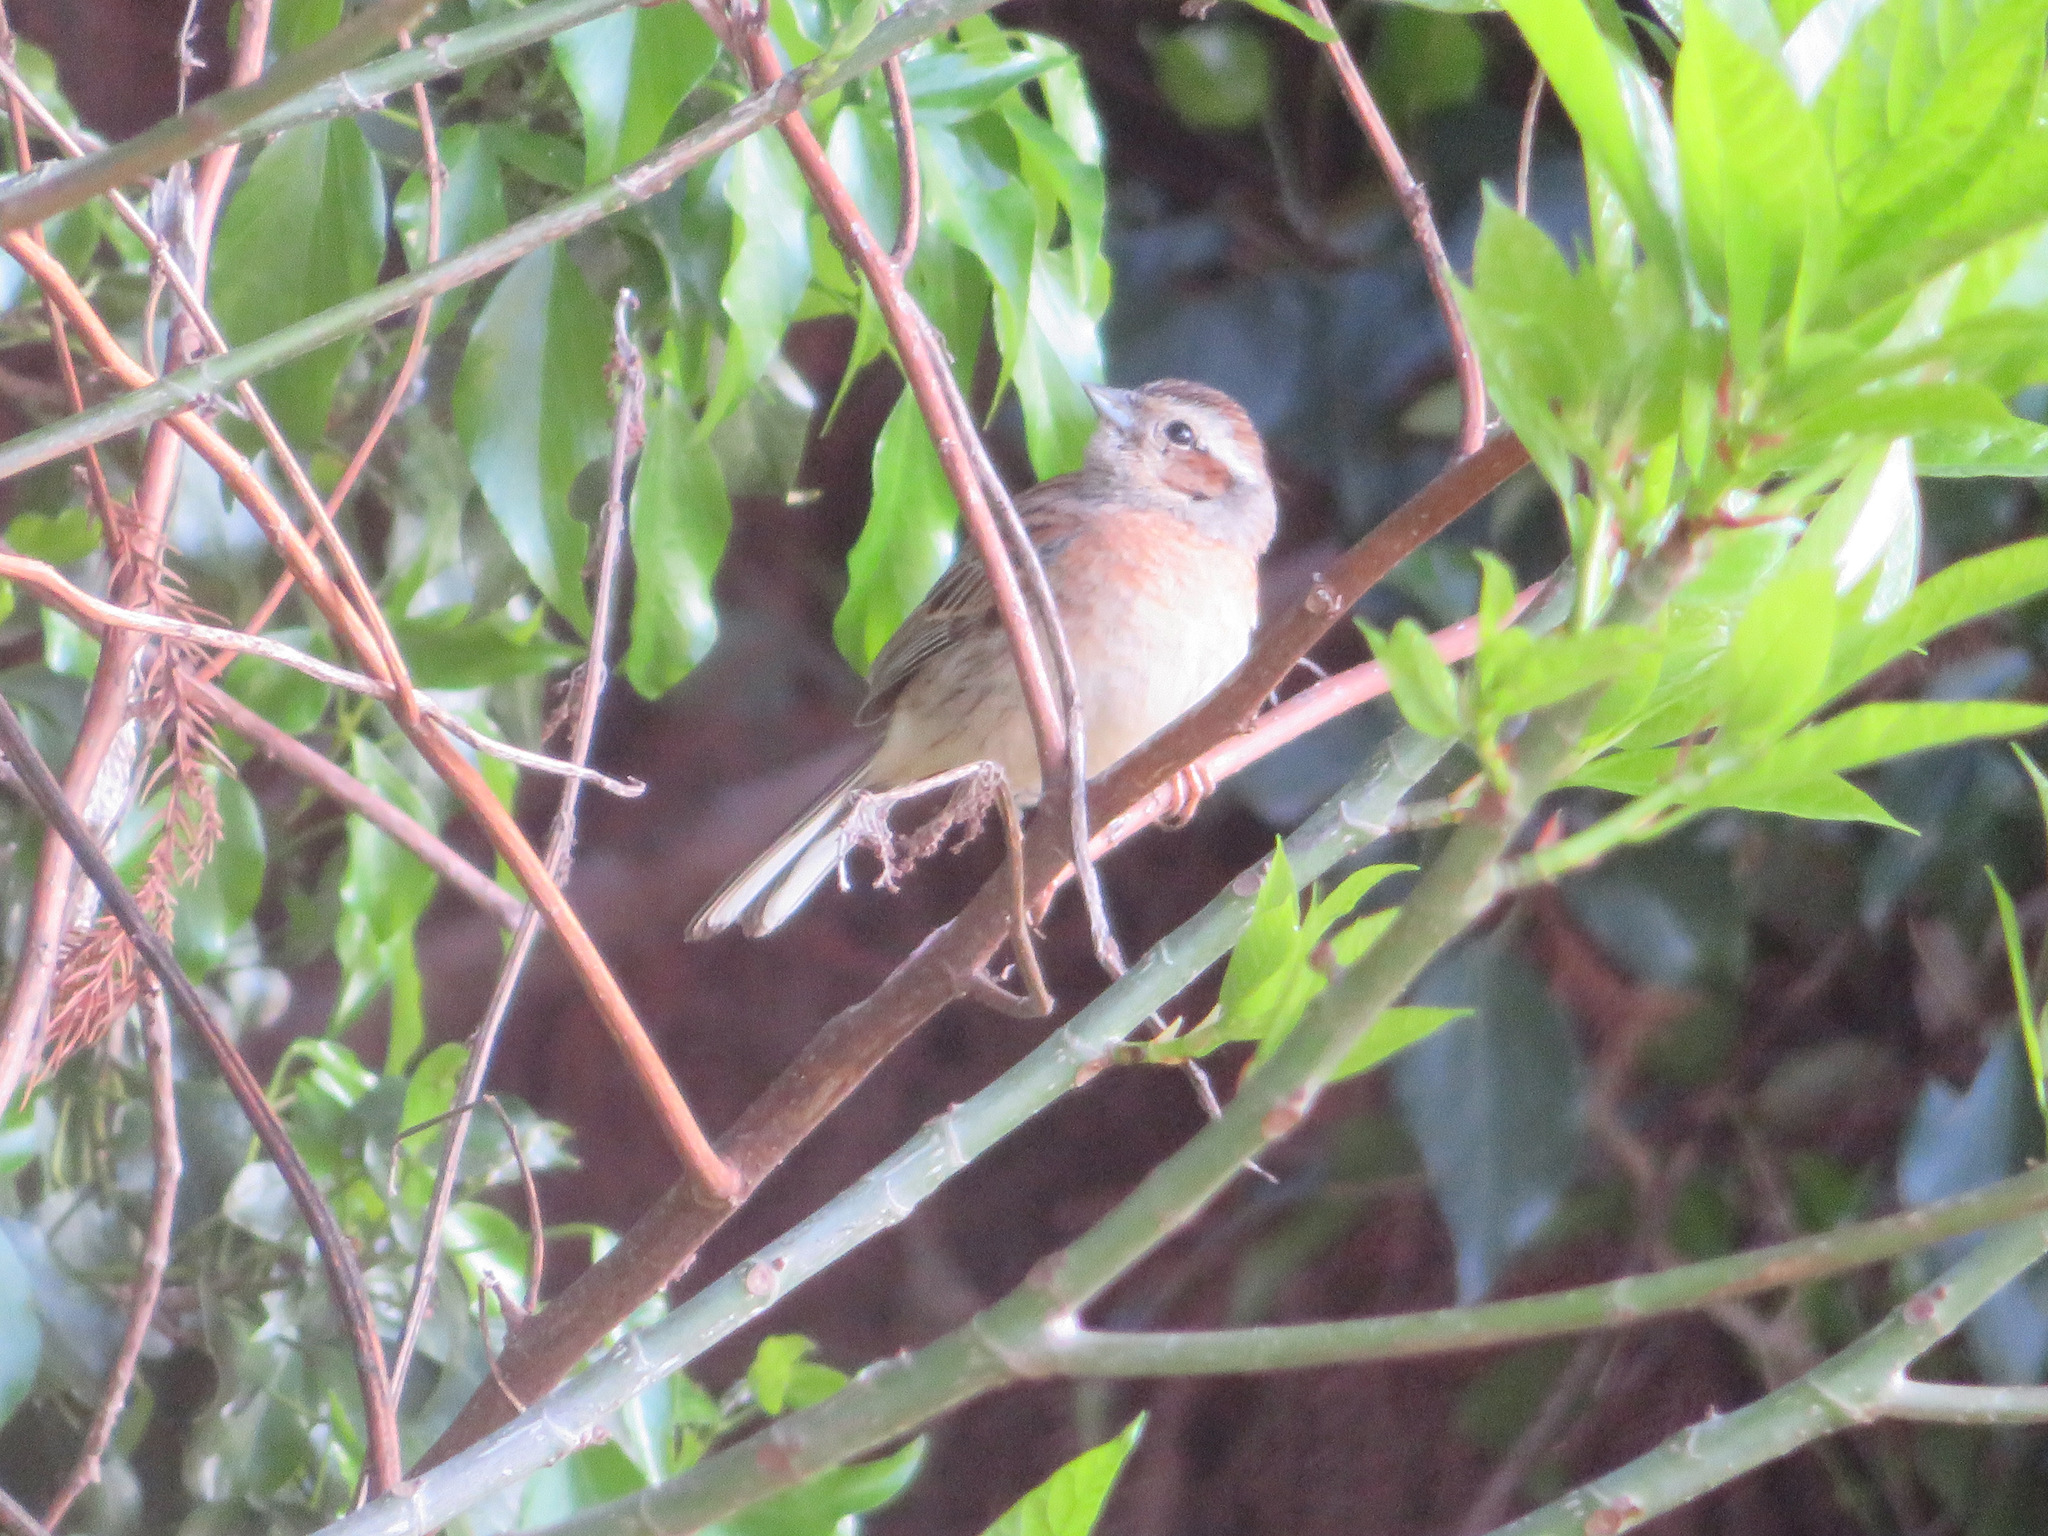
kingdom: Animalia
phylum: Chordata
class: Aves
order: Passeriformes
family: Emberizidae
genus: Emberiza
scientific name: Emberiza cioides
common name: Meadow bunting
